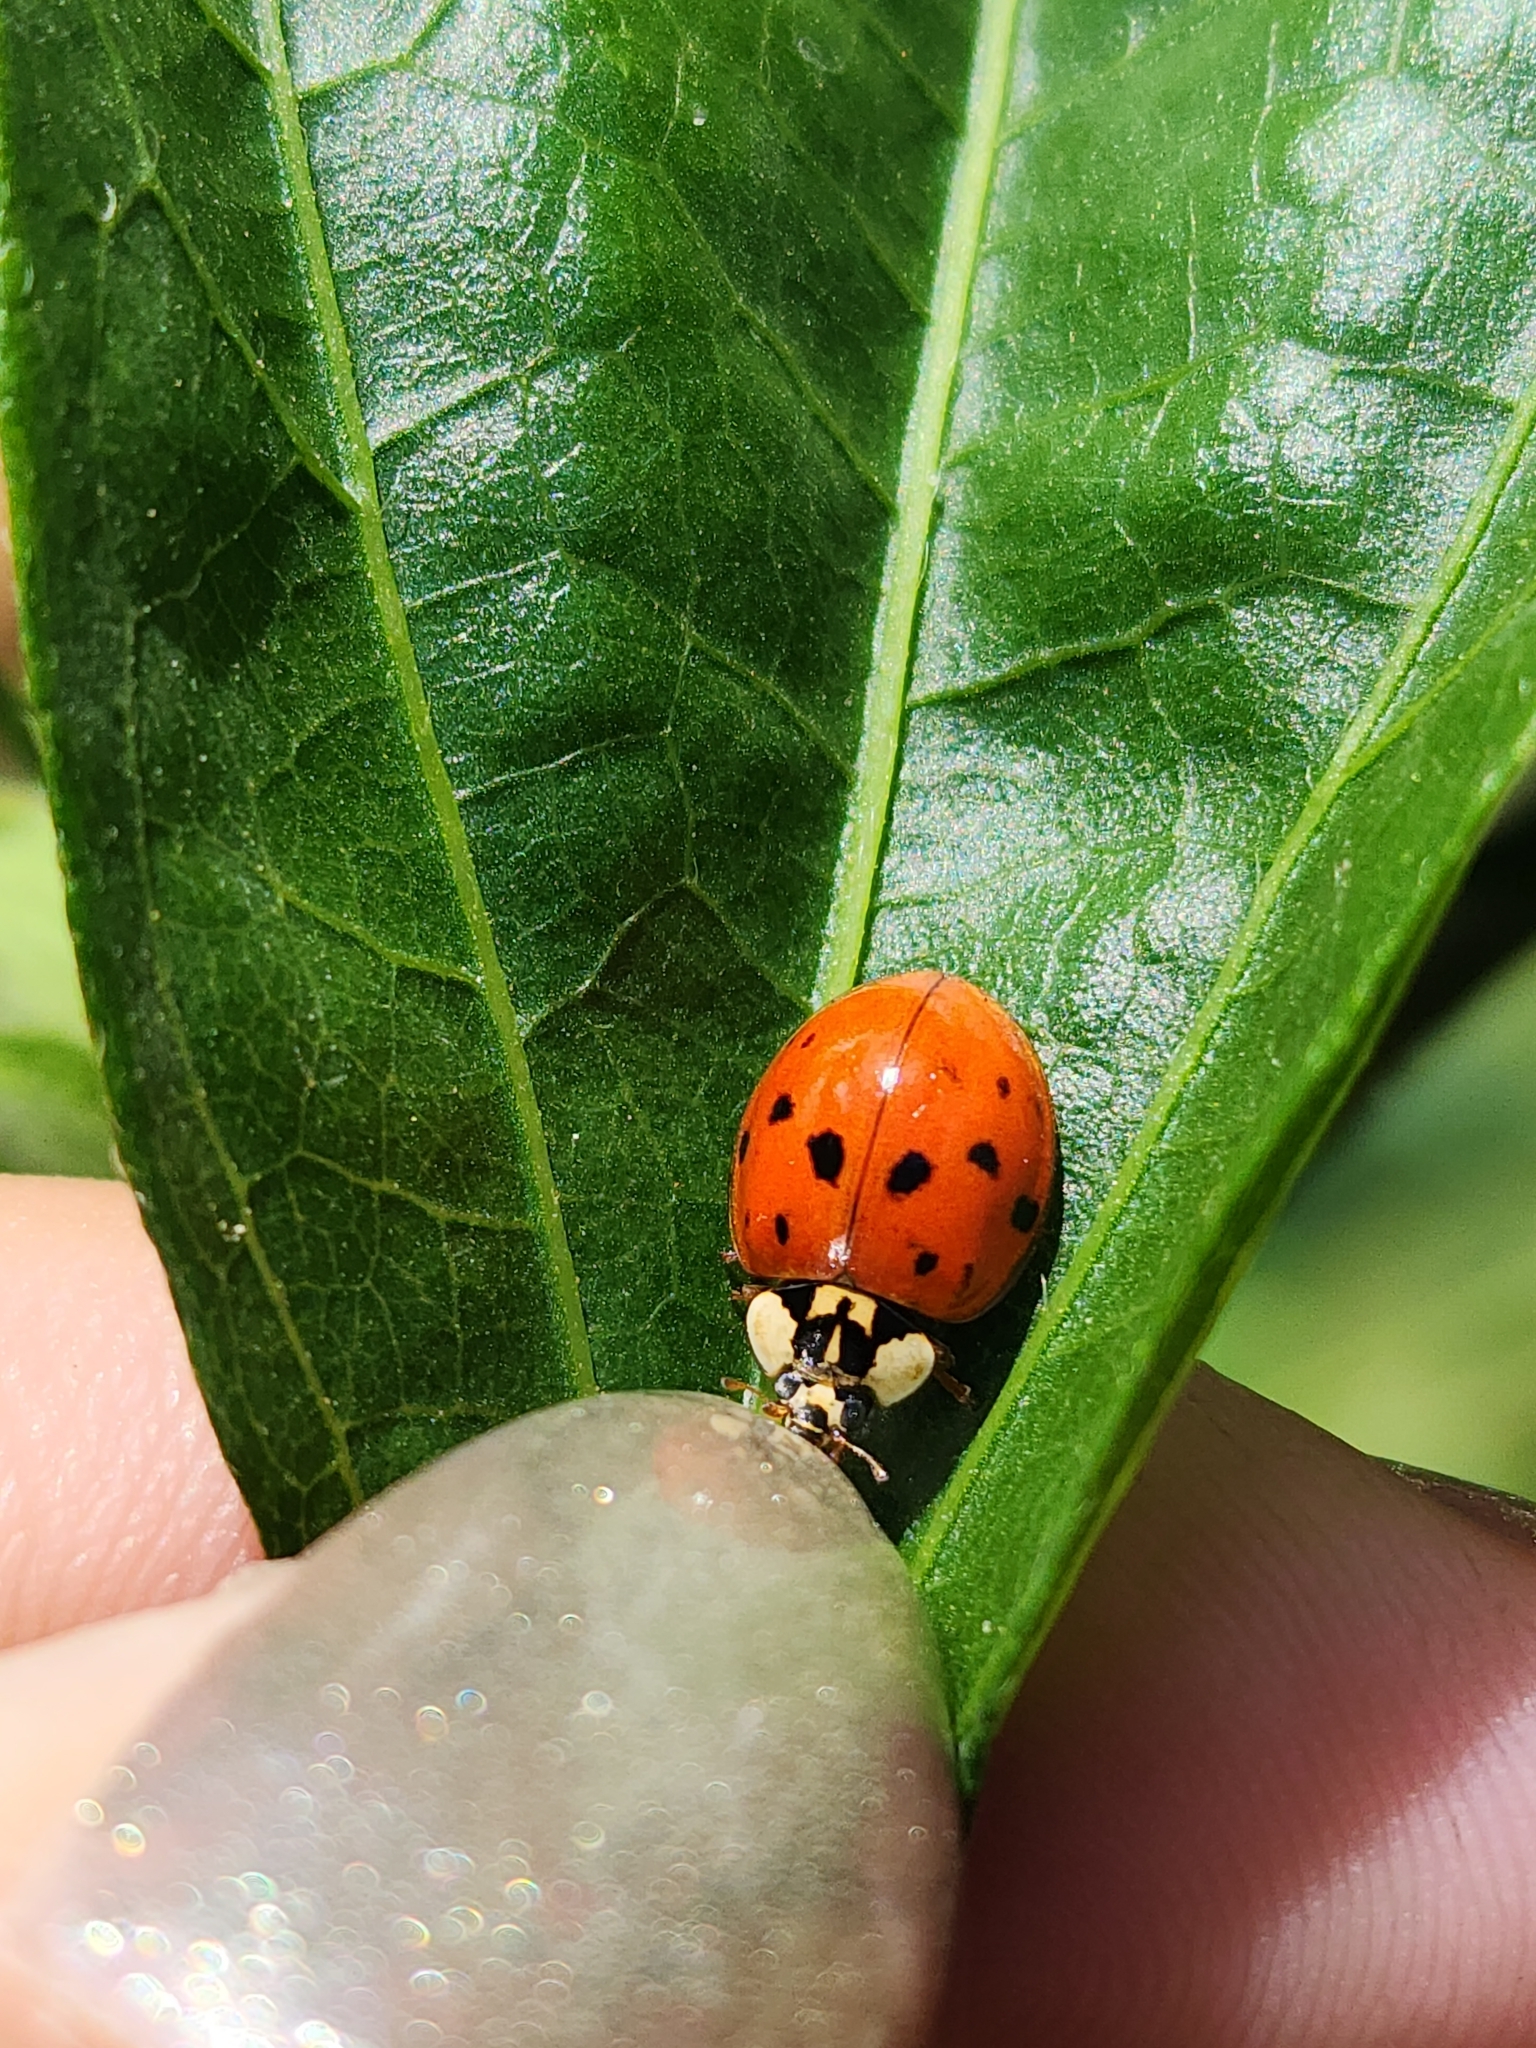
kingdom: Animalia
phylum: Arthropoda
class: Insecta
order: Coleoptera
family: Coccinellidae
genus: Harmonia
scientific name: Harmonia axyridis
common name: Harlequin ladybird
